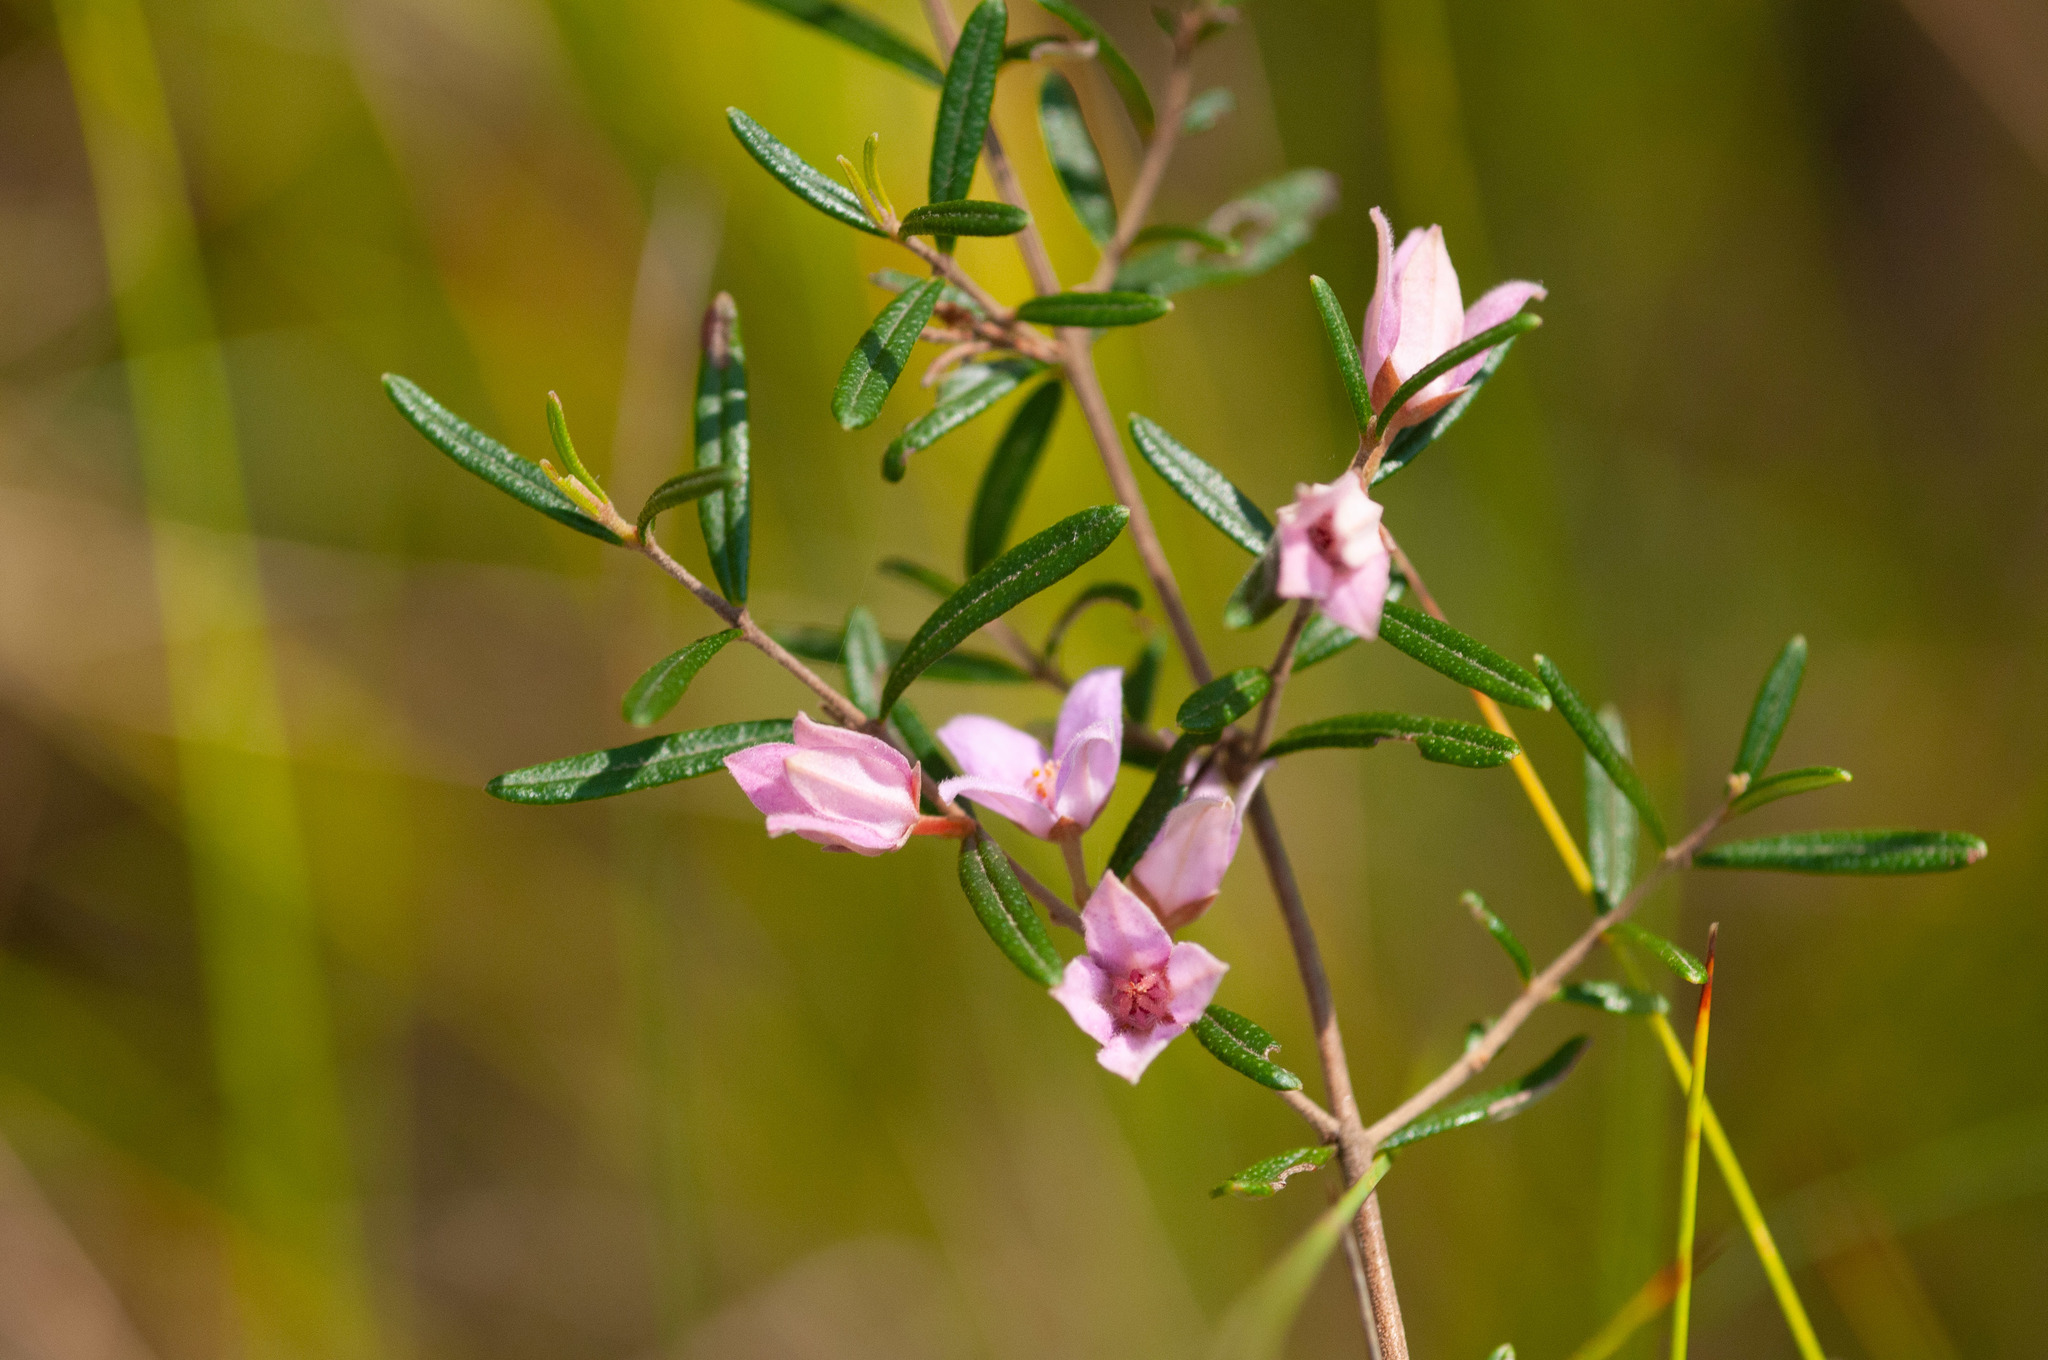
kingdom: Plantae
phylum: Tracheophyta
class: Magnoliopsida
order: Sapindales
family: Rutaceae
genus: Boronia
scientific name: Boronia rosmarinifolia
